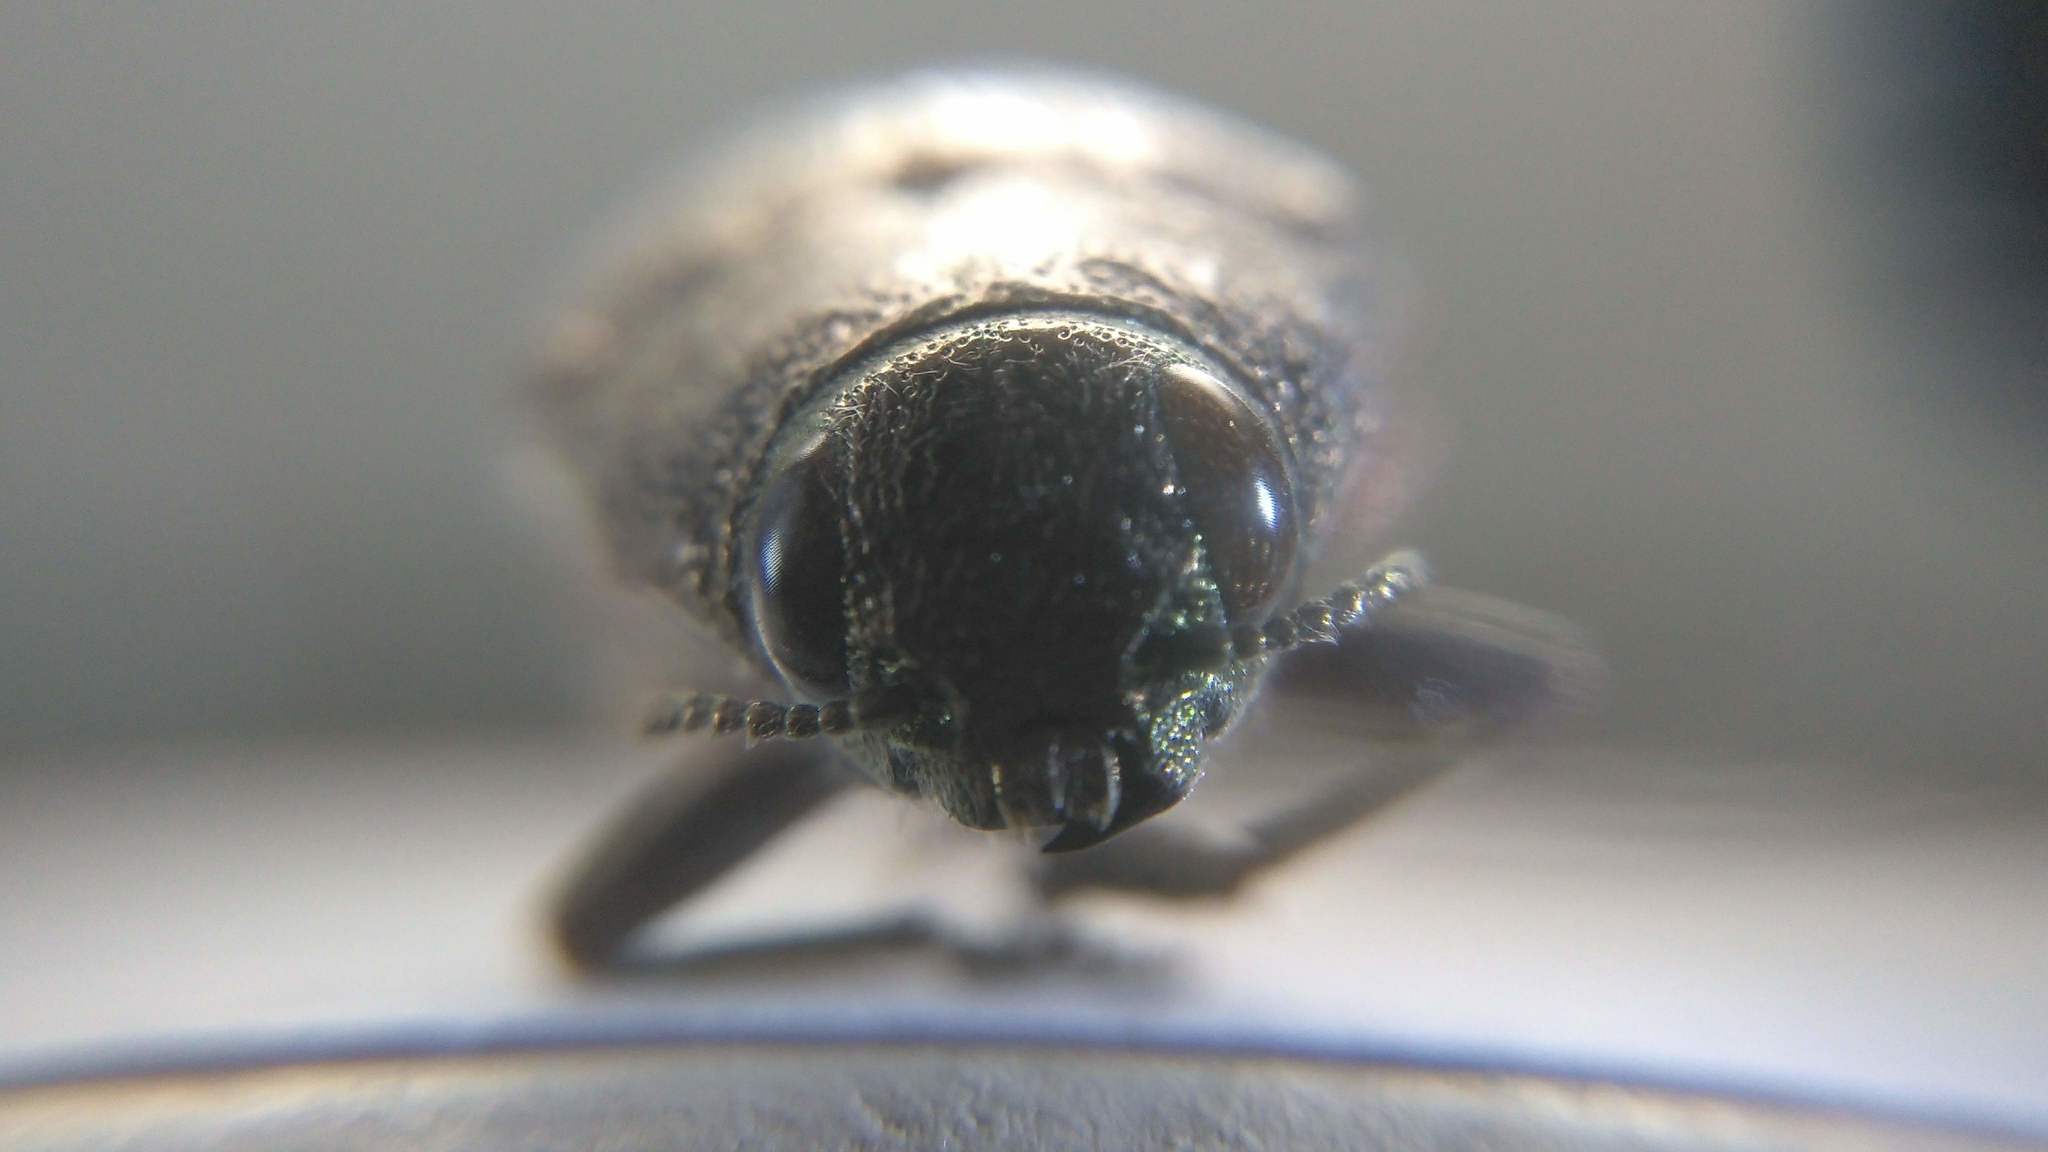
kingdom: Animalia
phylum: Arthropoda
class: Insecta
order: Coleoptera
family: Buprestidae
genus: Dicerca
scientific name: Dicerca divaricata
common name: Flat-headed hardwood borer
